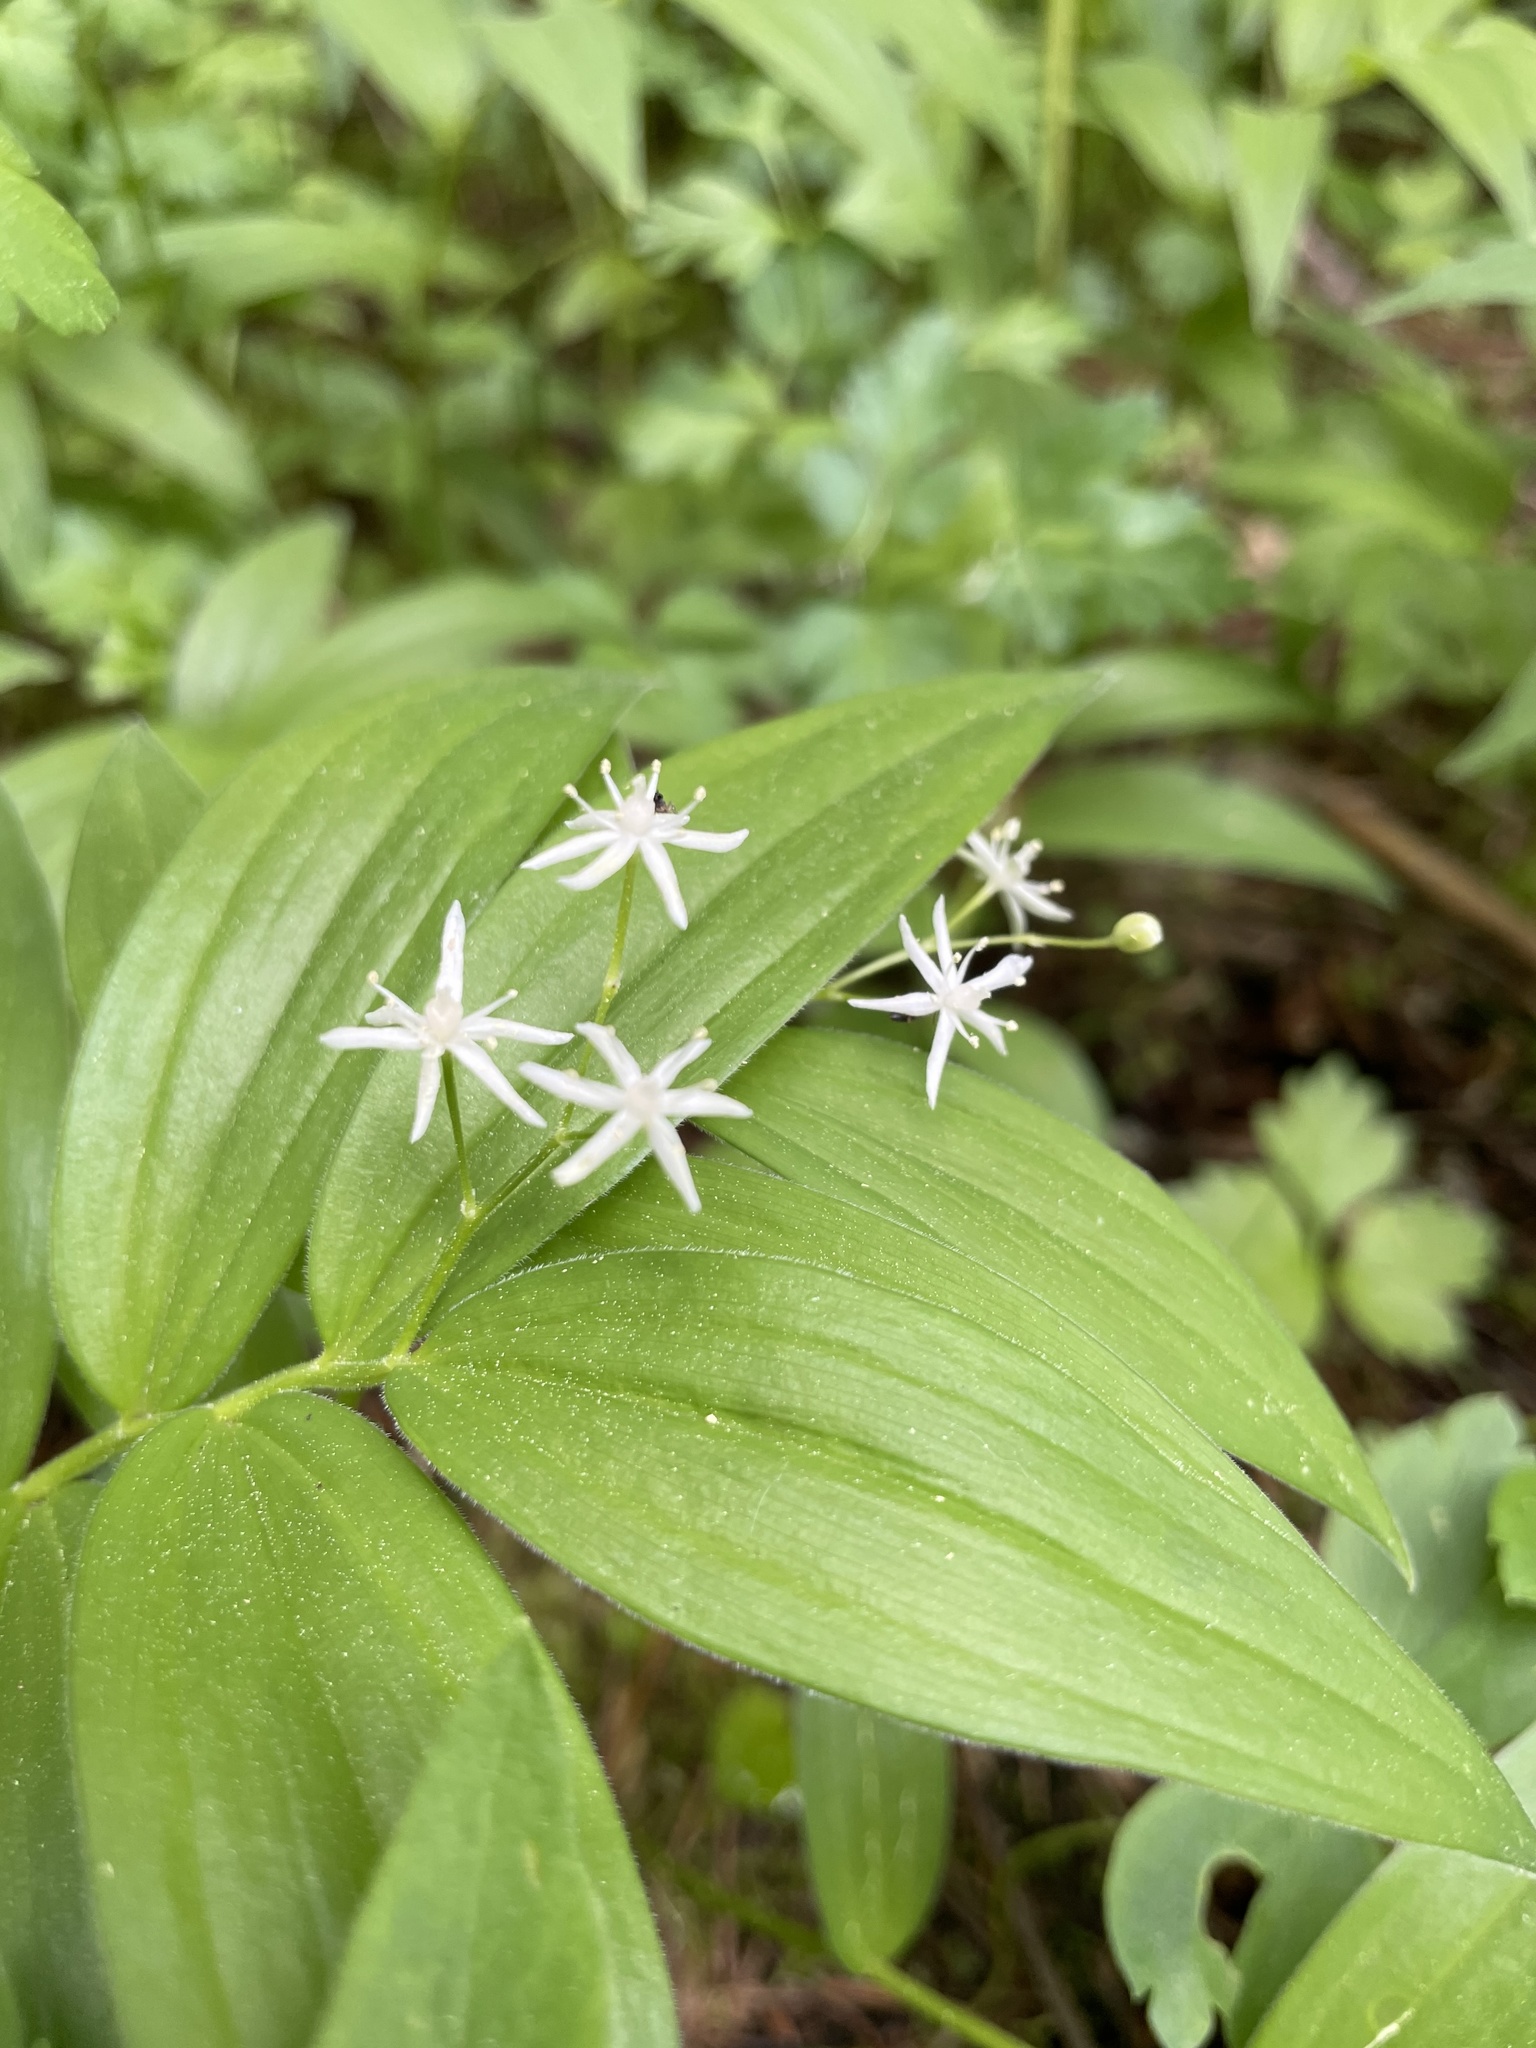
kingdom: Plantae
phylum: Tracheophyta
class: Liliopsida
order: Asparagales
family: Asparagaceae
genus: Maianthemum
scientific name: Maianthemum stellatum
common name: Little false solomon's seal
